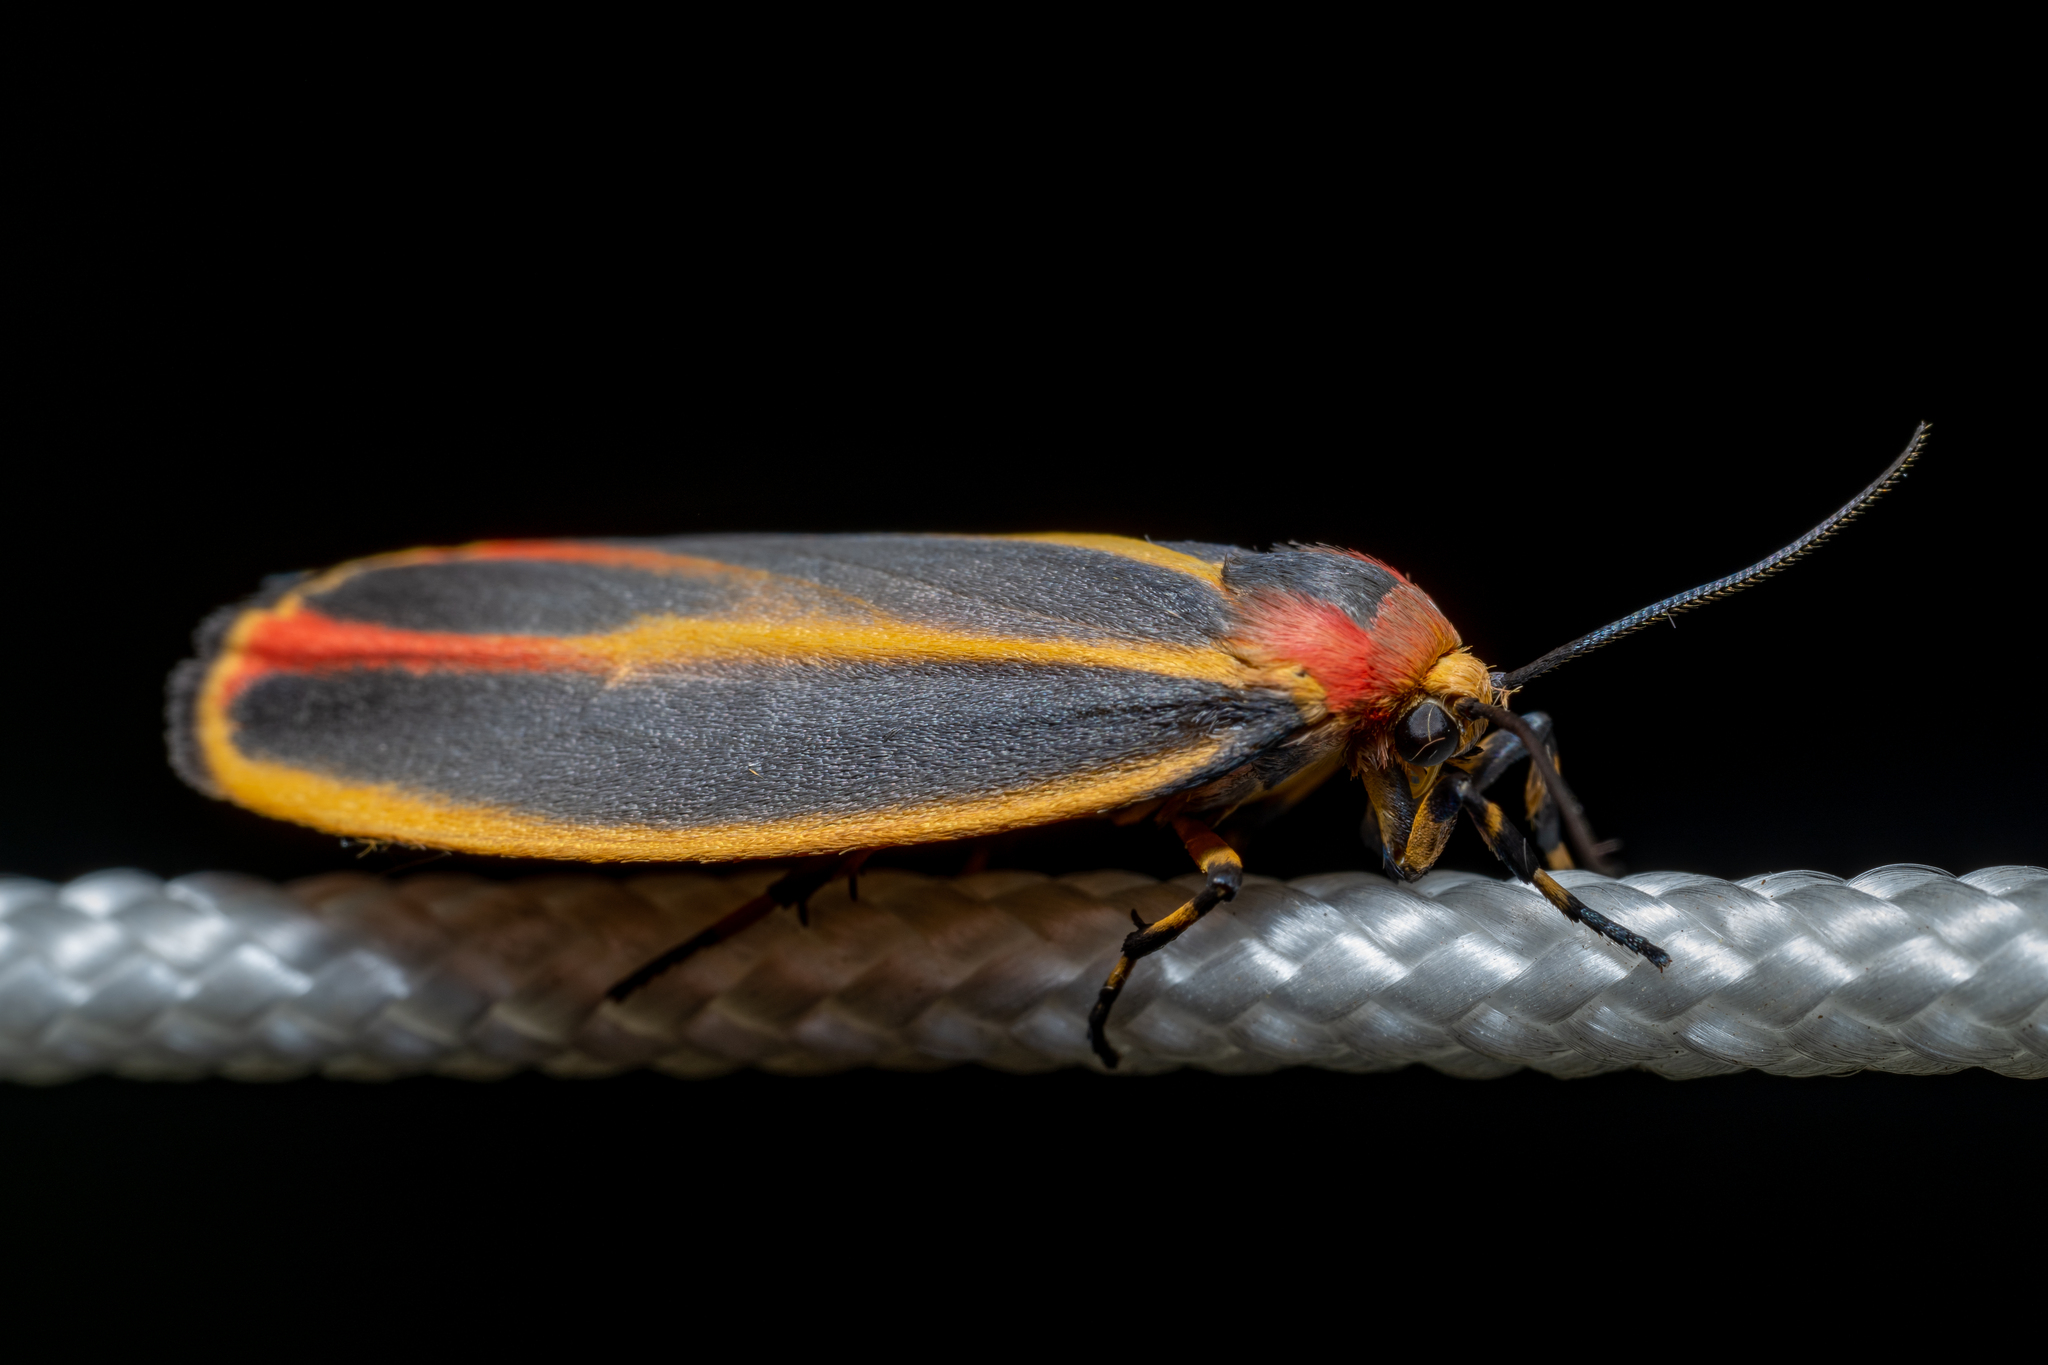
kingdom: Animalia
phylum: Arthropoda
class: Insecta
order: Lepidoptera
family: Erebidae
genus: Hypoprepia
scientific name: Hypoprepia fucosa
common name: Painted lichen moth
